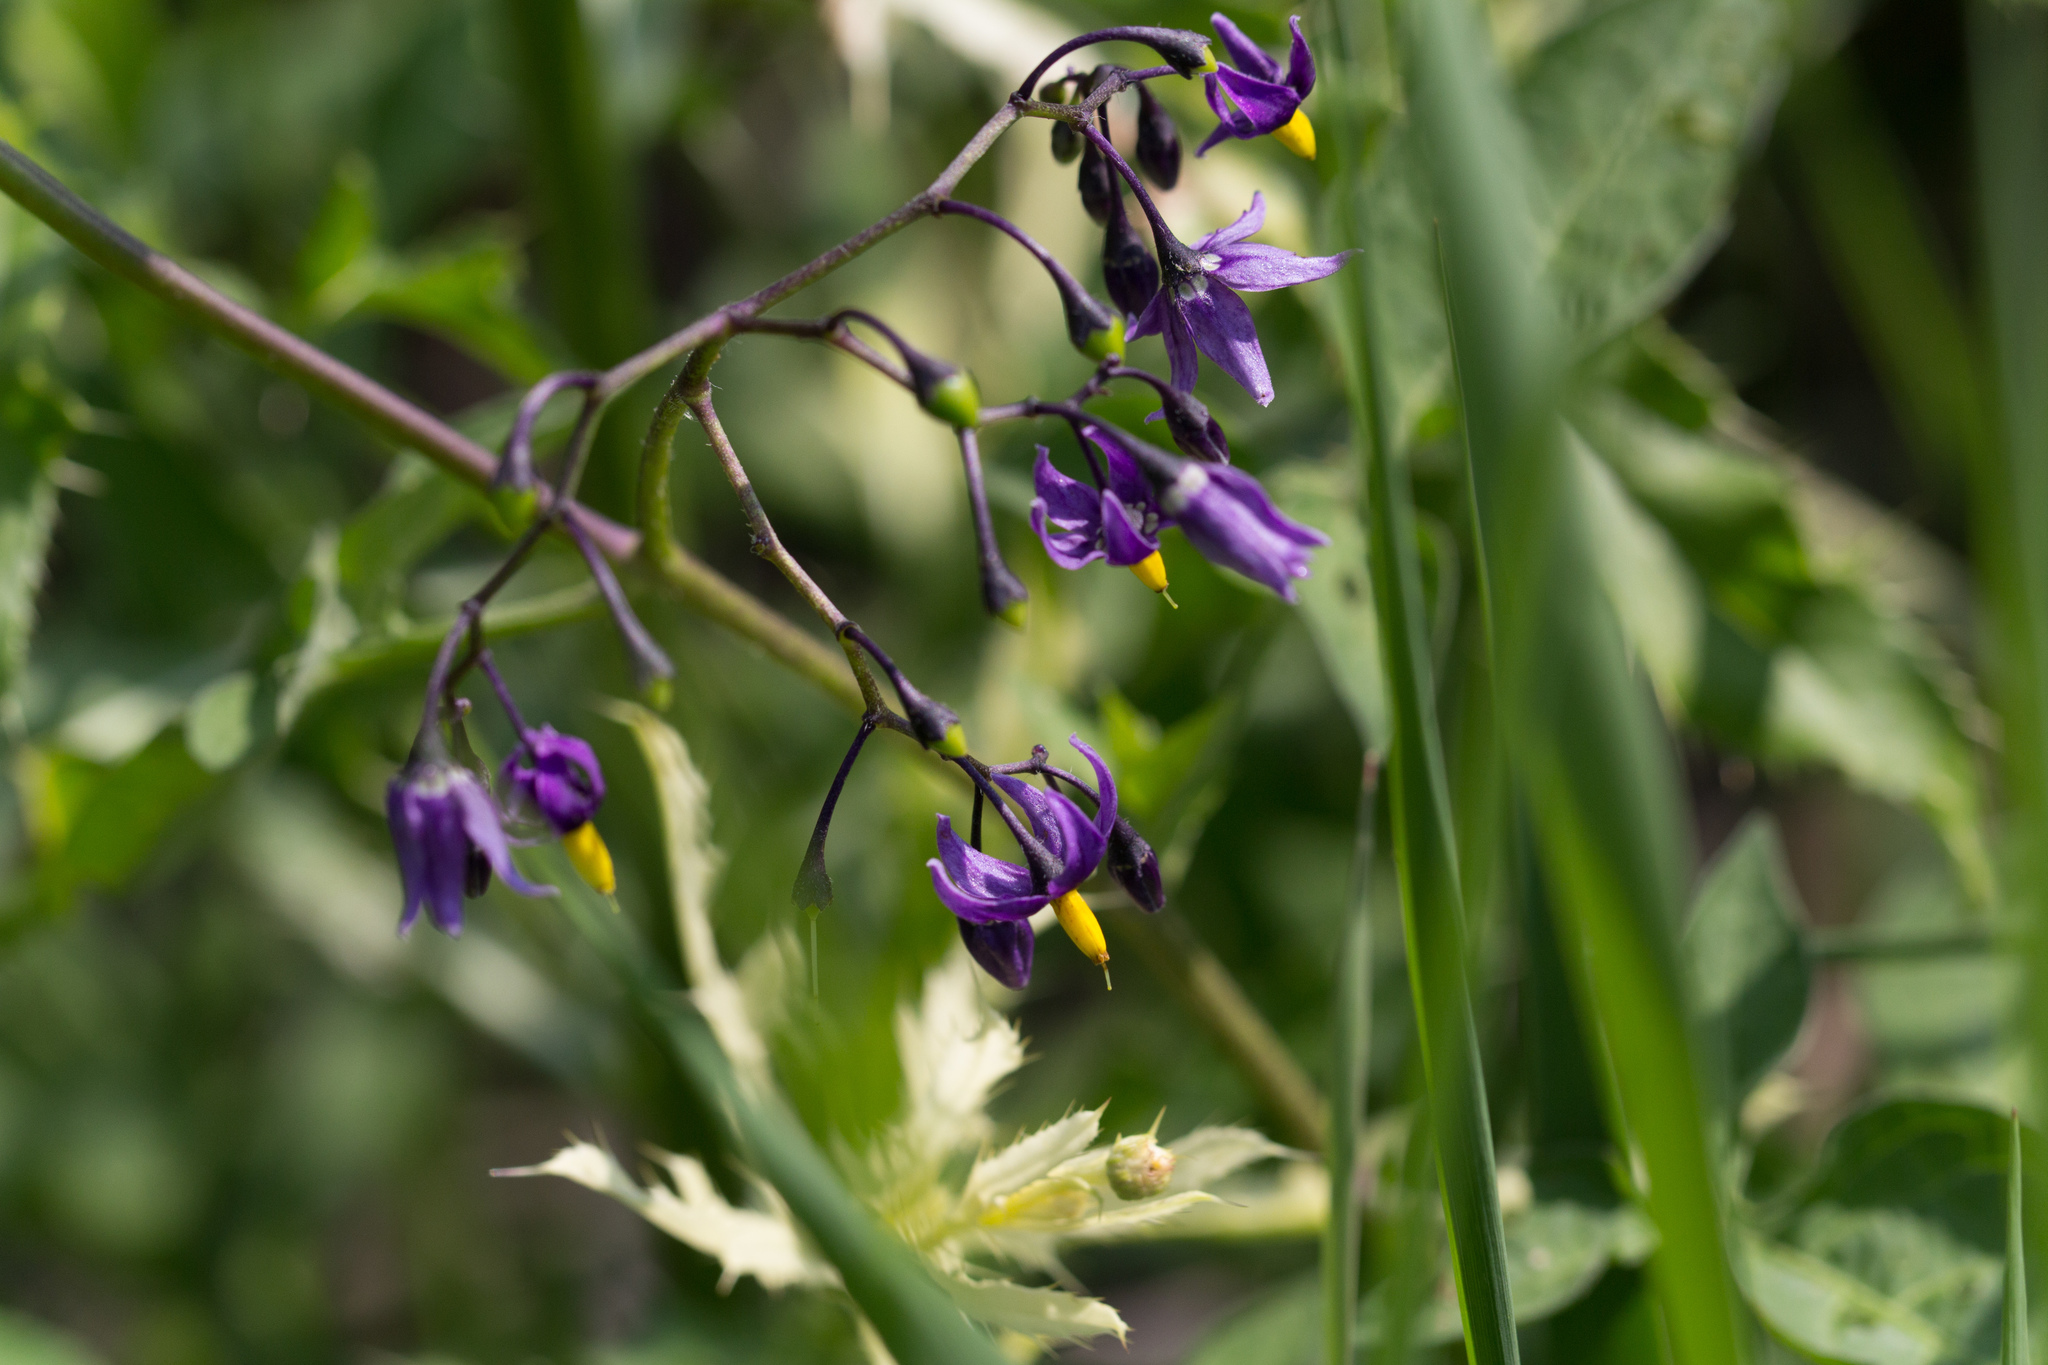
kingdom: Plantae
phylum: Tracheophyta
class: Magnoliopsida
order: Solanales
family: Solanaceae
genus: Solanum
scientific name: Solanum dulcamara
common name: Climbing nightshade
